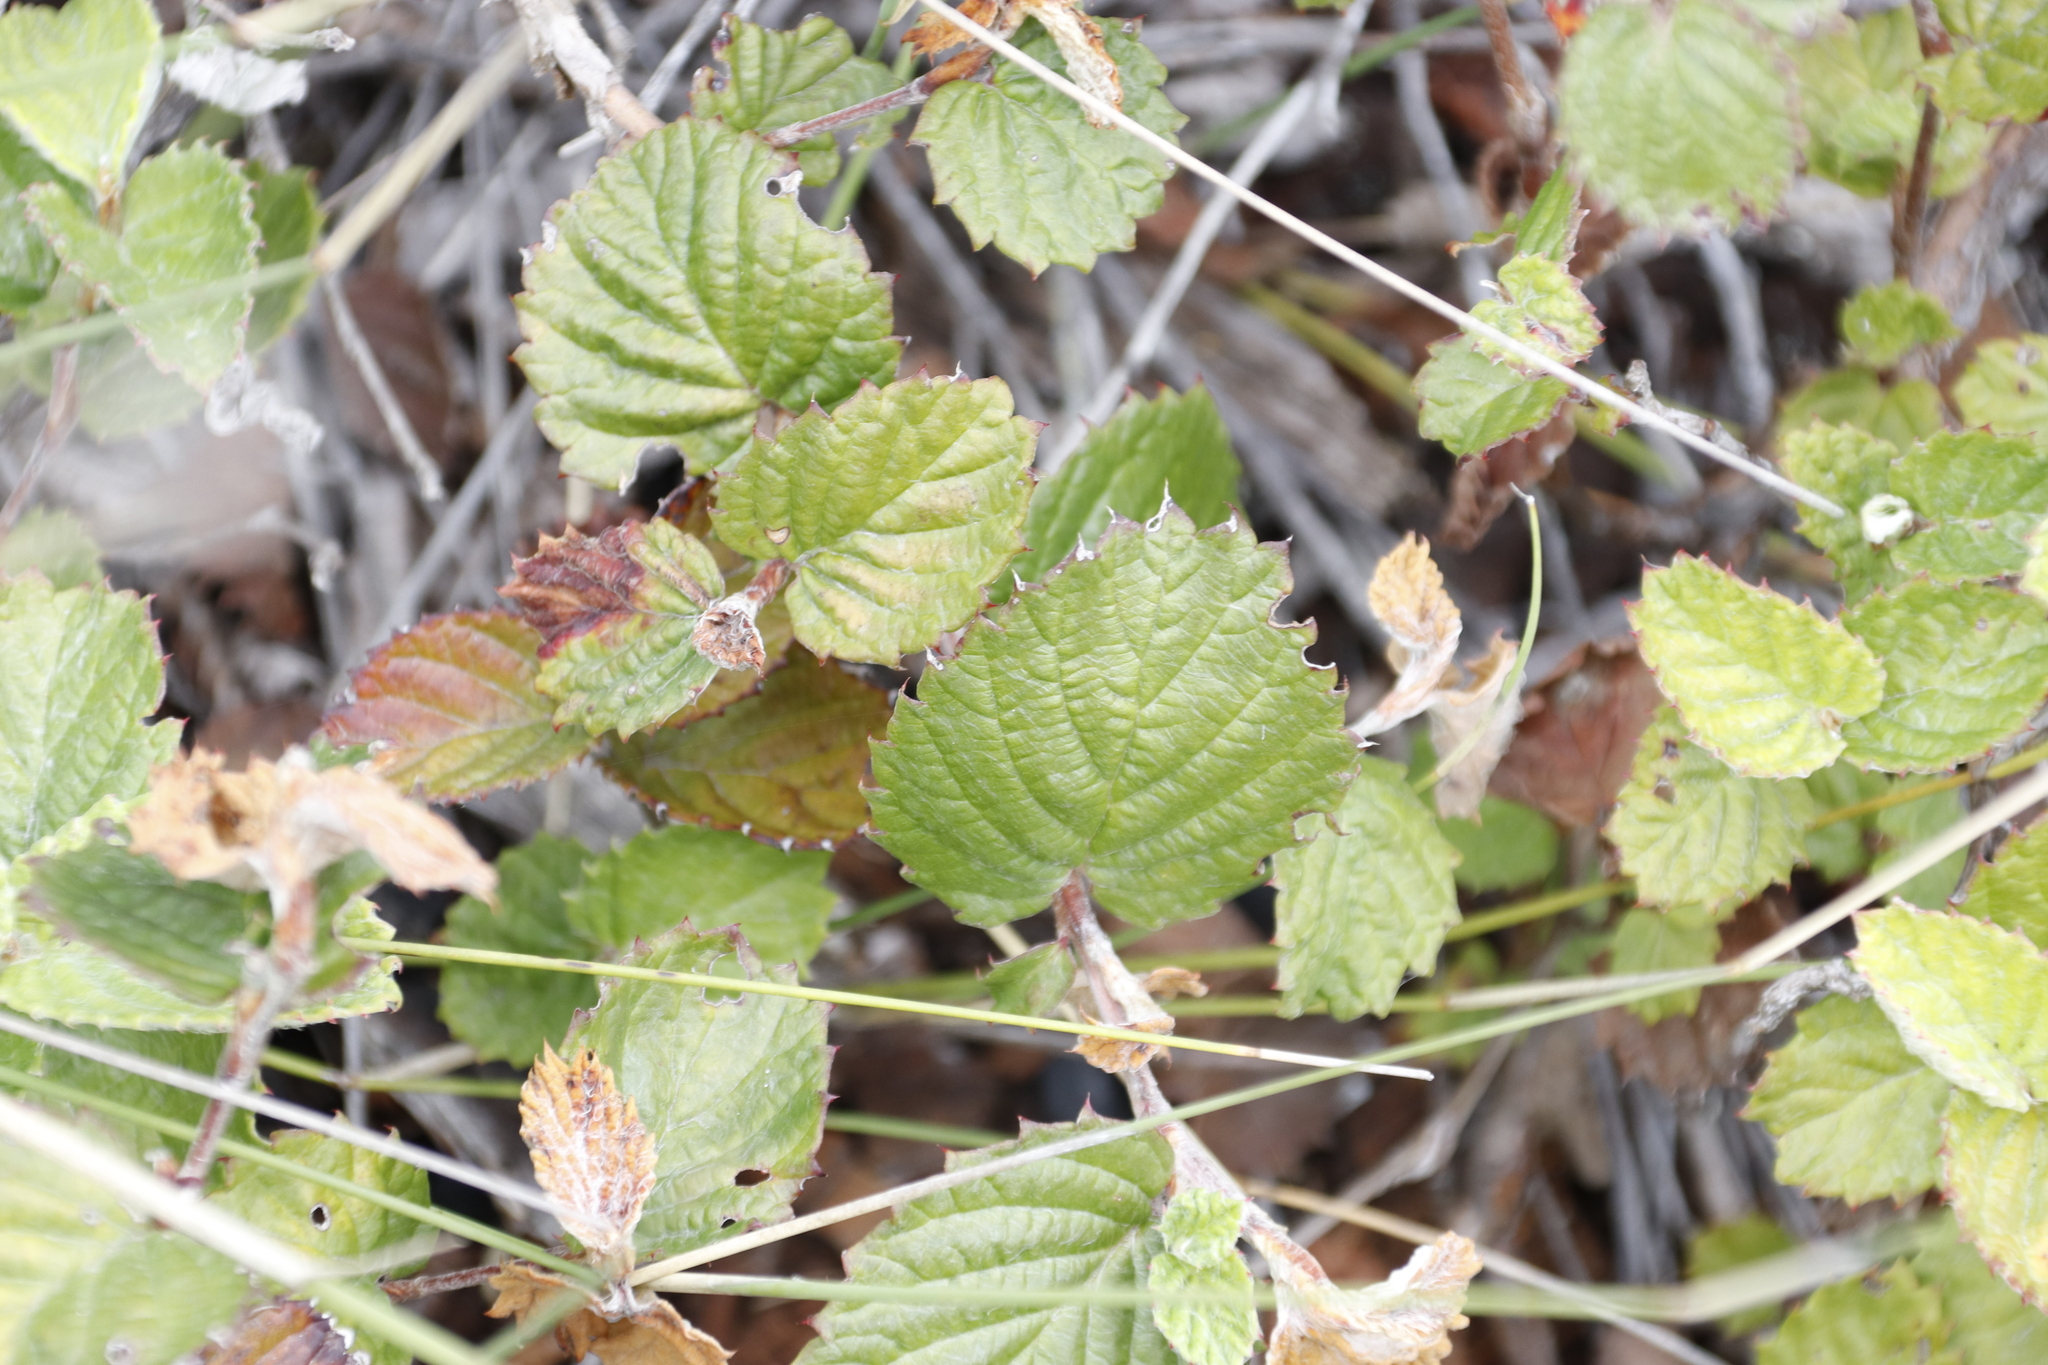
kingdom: Plantae
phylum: Tracheophyta
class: Magnoliopsida
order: Rosales
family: Rosaceae
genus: Cliffortia
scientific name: Cliffortia odorata
